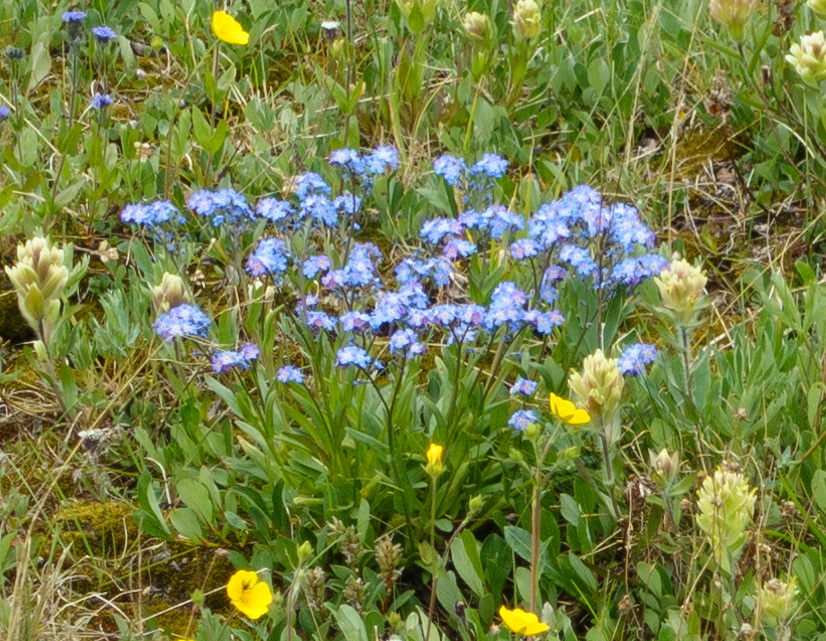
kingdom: Plantae
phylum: Tracheophyta
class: Magnoliopsida
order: Boraginales
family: Boraginaceae
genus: Myosotis
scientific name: Myosotis asiatica
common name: Asian forget-me-not
